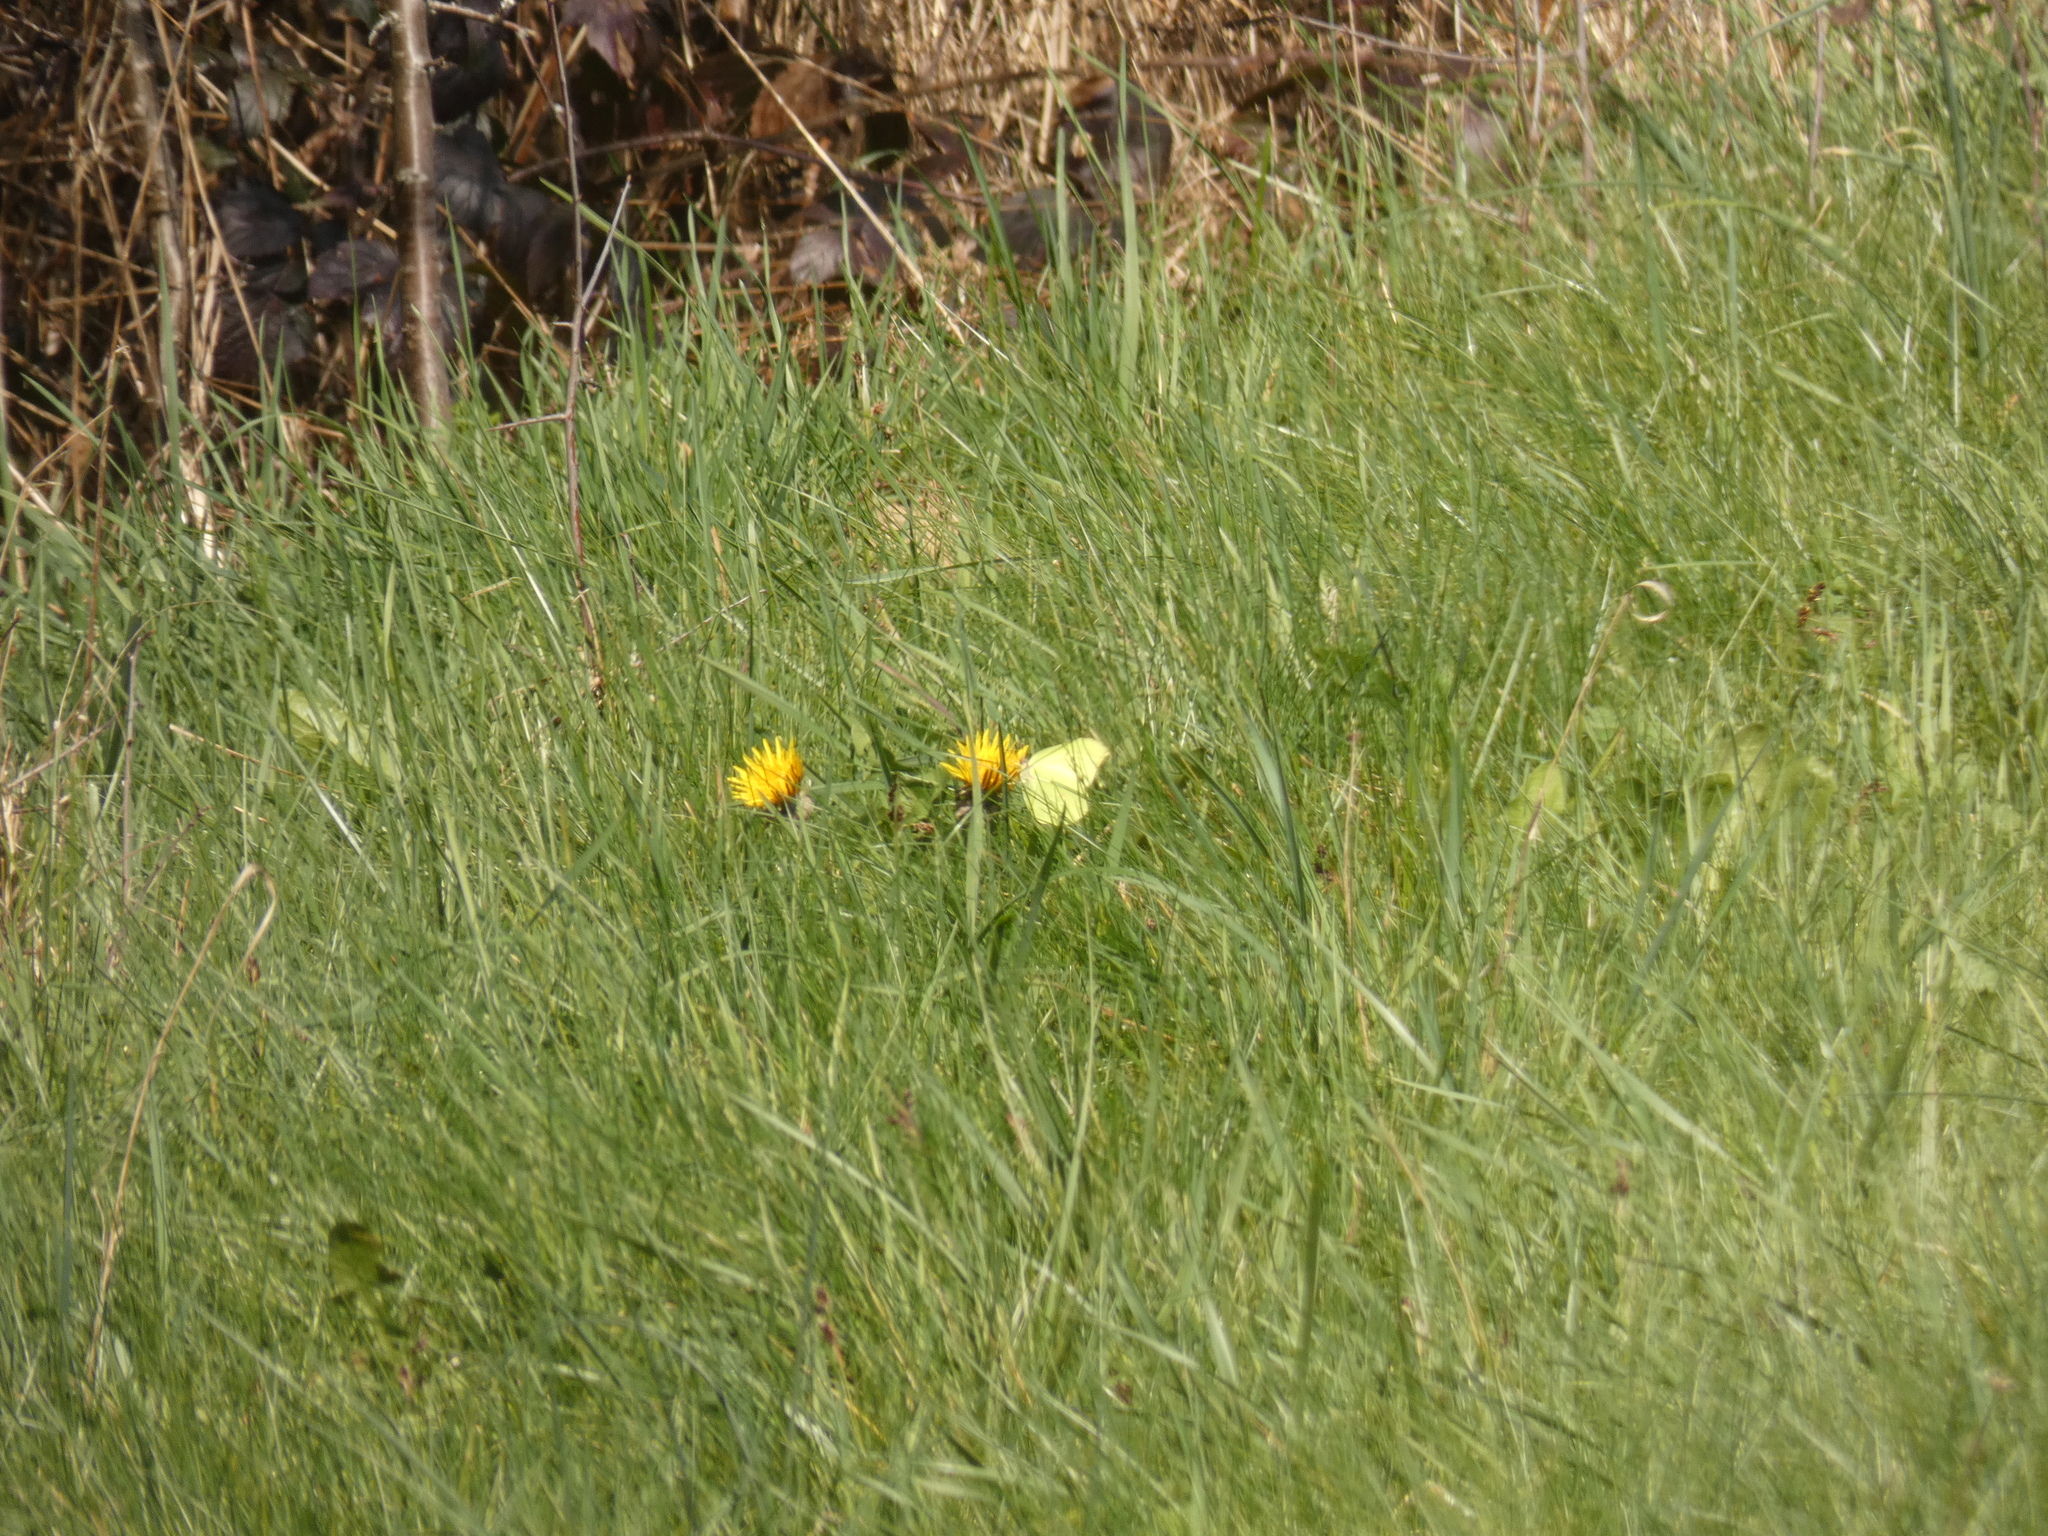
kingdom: Animalia
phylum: Arthropoda
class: Insecta
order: Lepidoptera
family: Pieridae
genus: Gonepteryx
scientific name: Gonepteryx rhamni
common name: Brimstone
